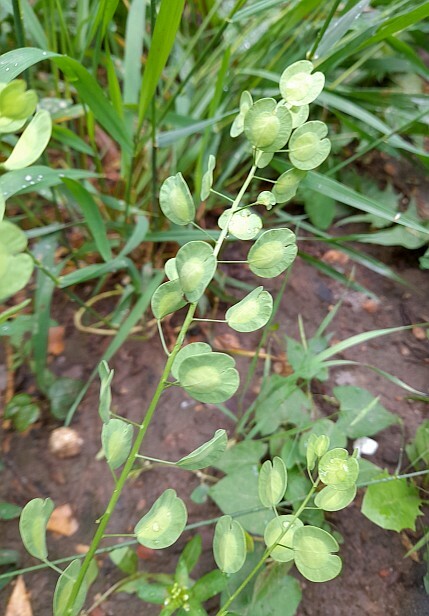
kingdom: Plantae
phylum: Tracheophyta
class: Magnoliopsida
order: Brassicales
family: Brassicaceae
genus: Thlaspi
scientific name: Thlaspi arvense
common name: Field pennycress
